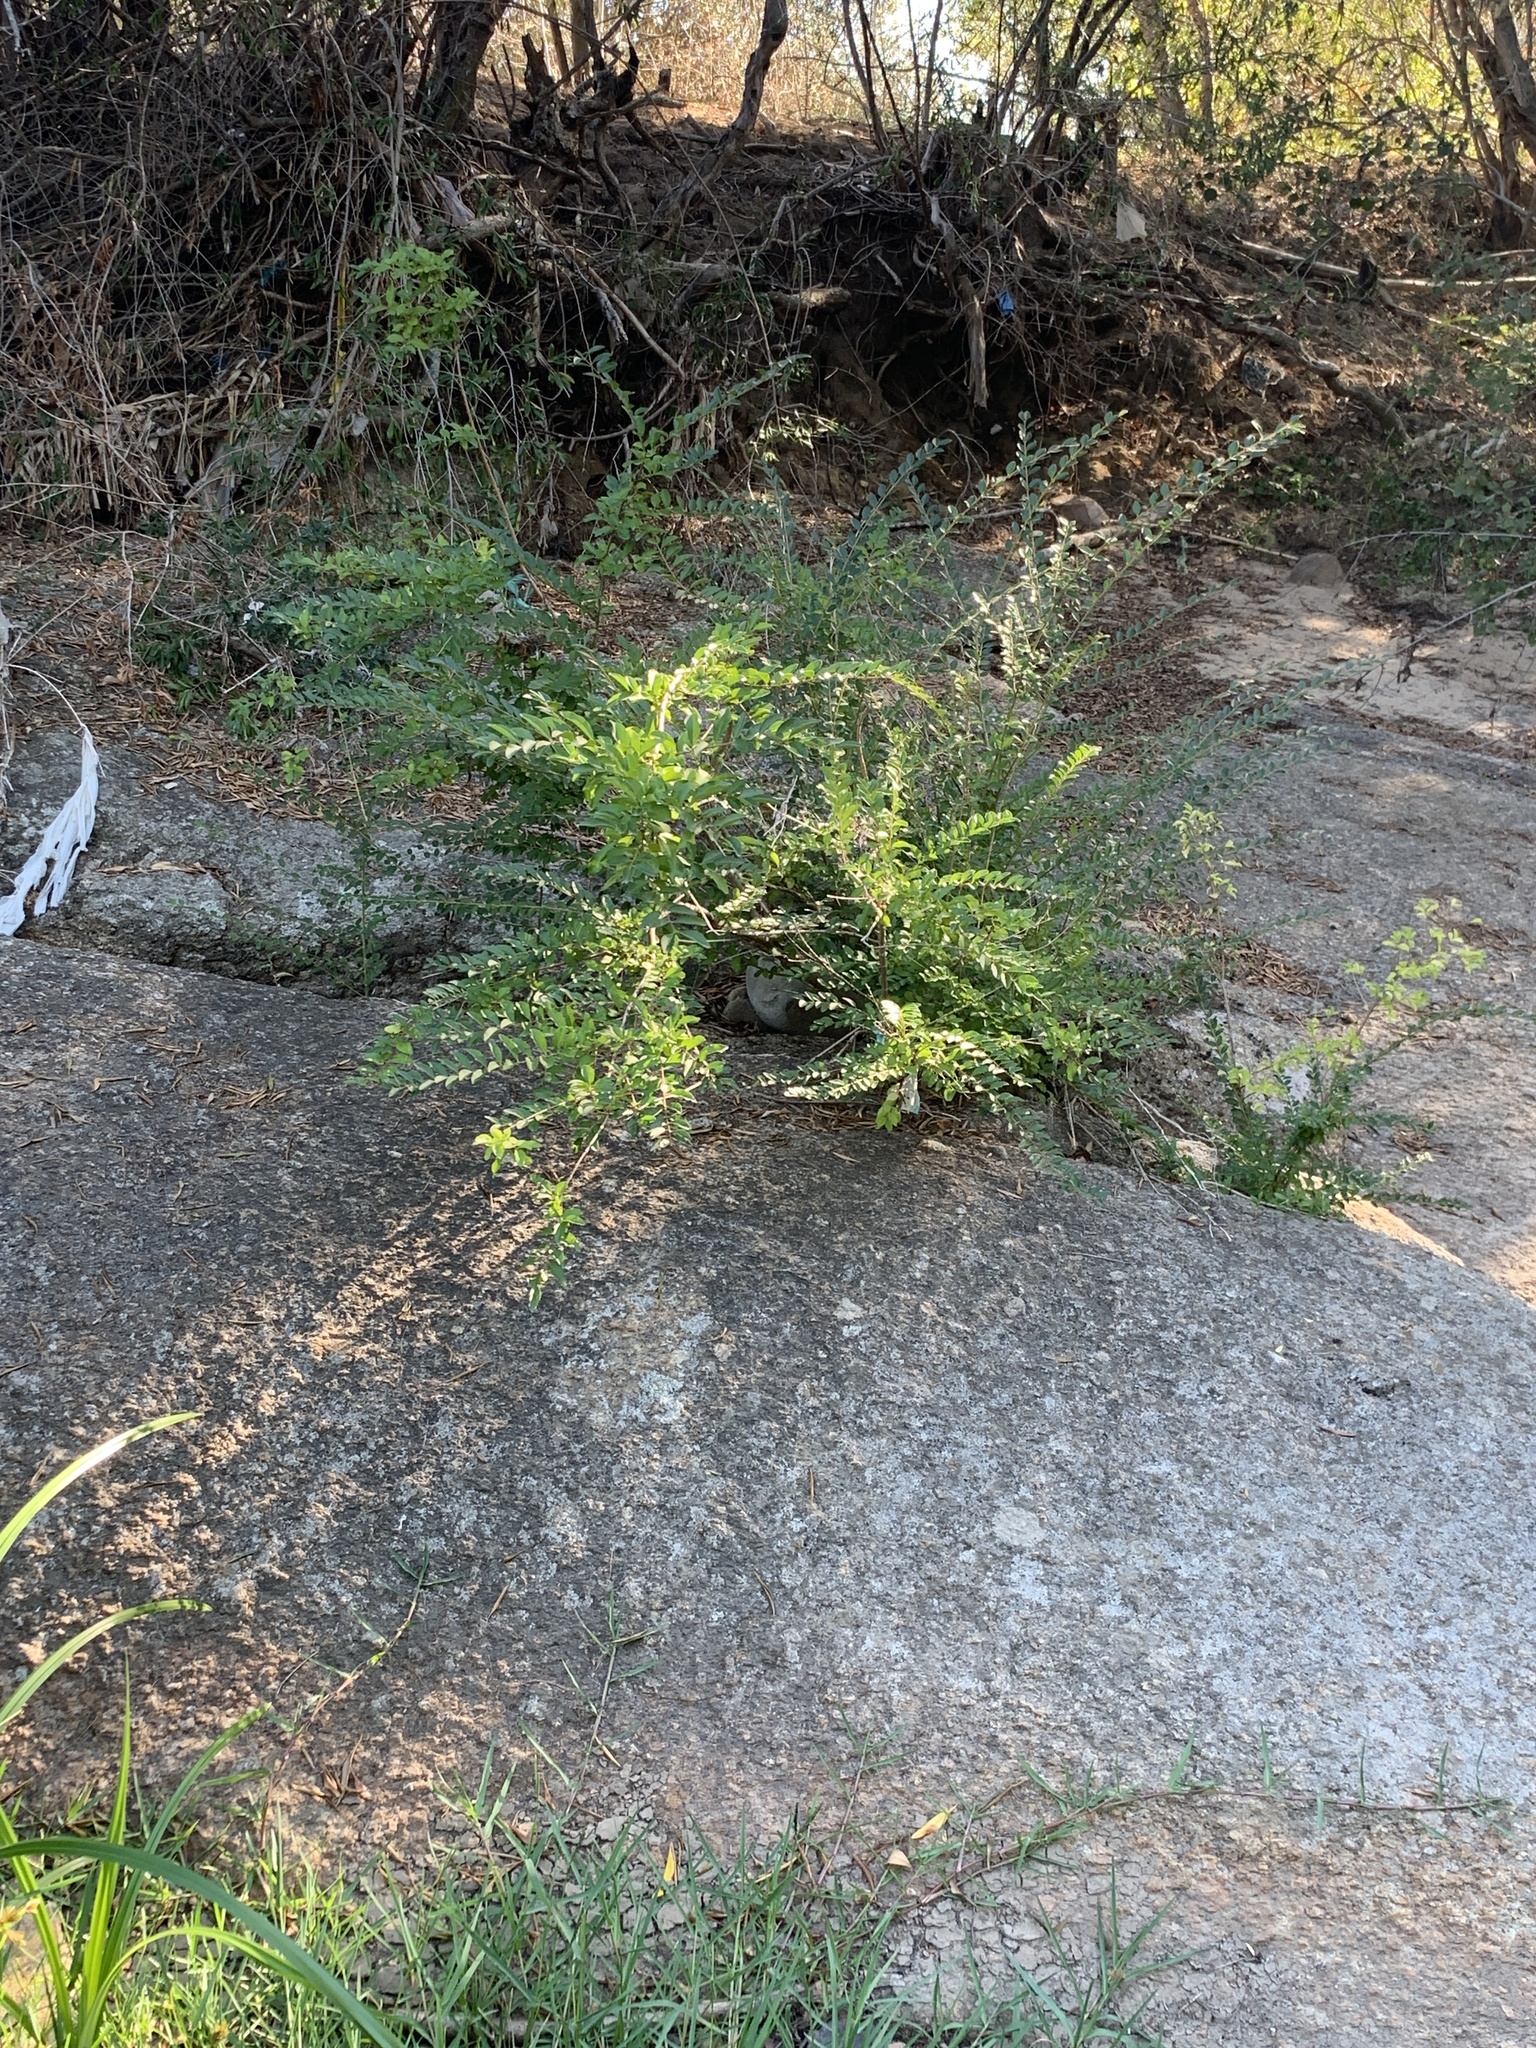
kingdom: Plantae
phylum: Tracheophyta
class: Magnoliopsida
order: Lamiales
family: Oleaceae
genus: Ligustrum
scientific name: Ligustrum sinense
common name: Chinese privet
